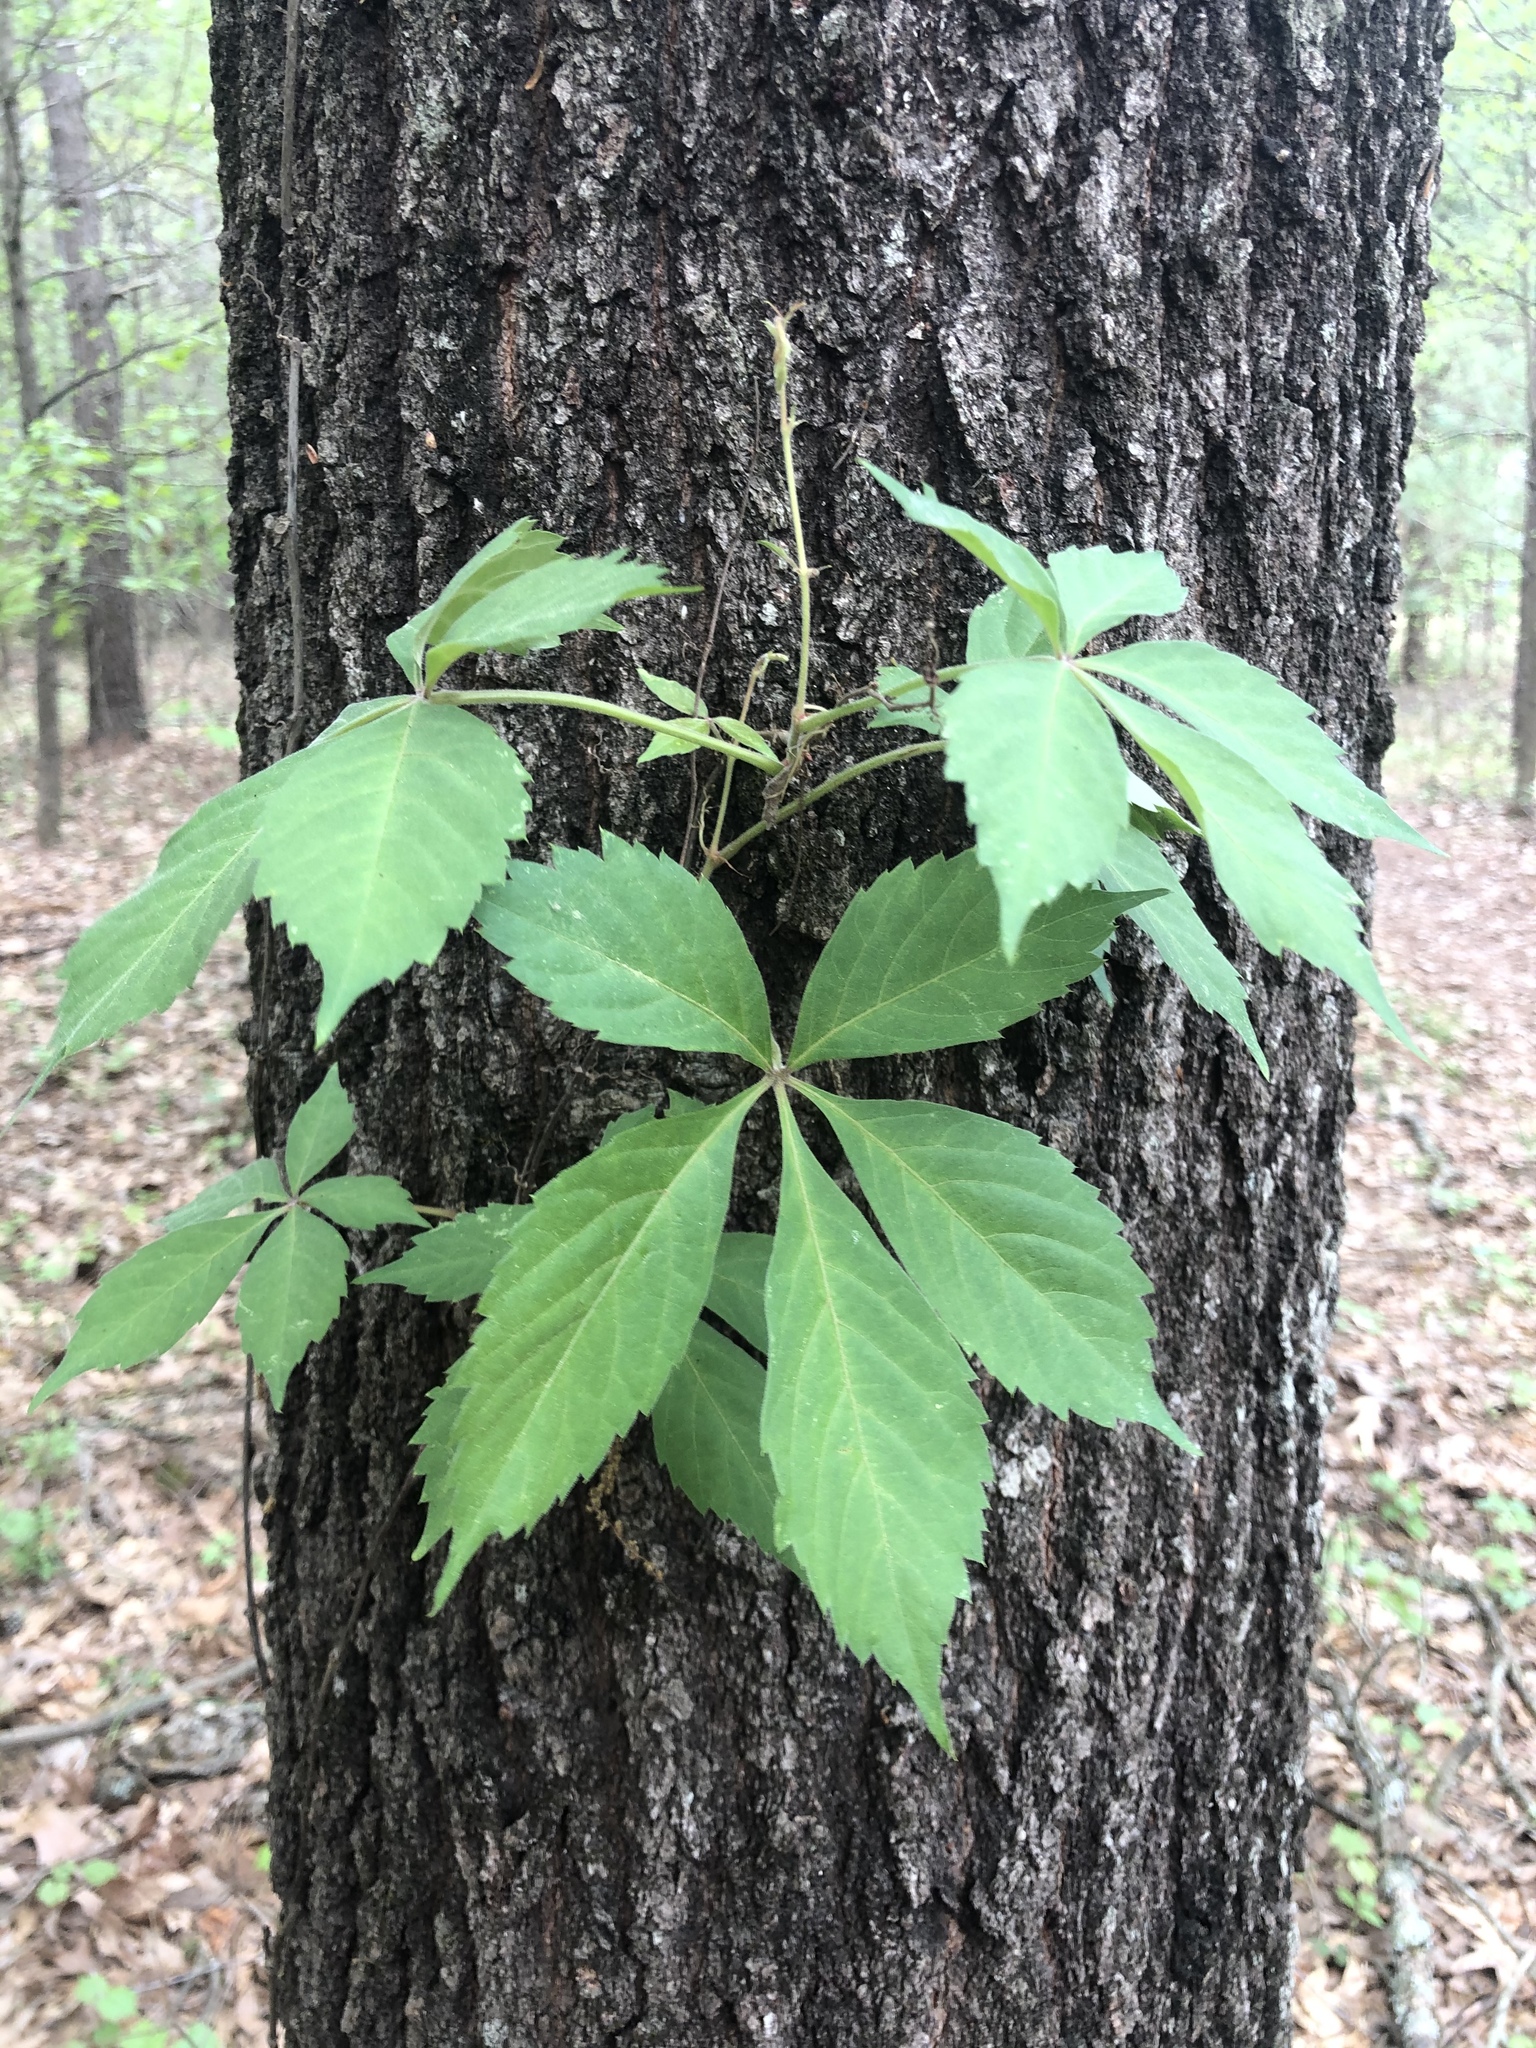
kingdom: Plantae
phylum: Tracheophyta
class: Magnoliopsida
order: Vitales
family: Vitaceae
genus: Parthenocissus
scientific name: Parthenocissus quinquefolia
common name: Virginia-creeper
